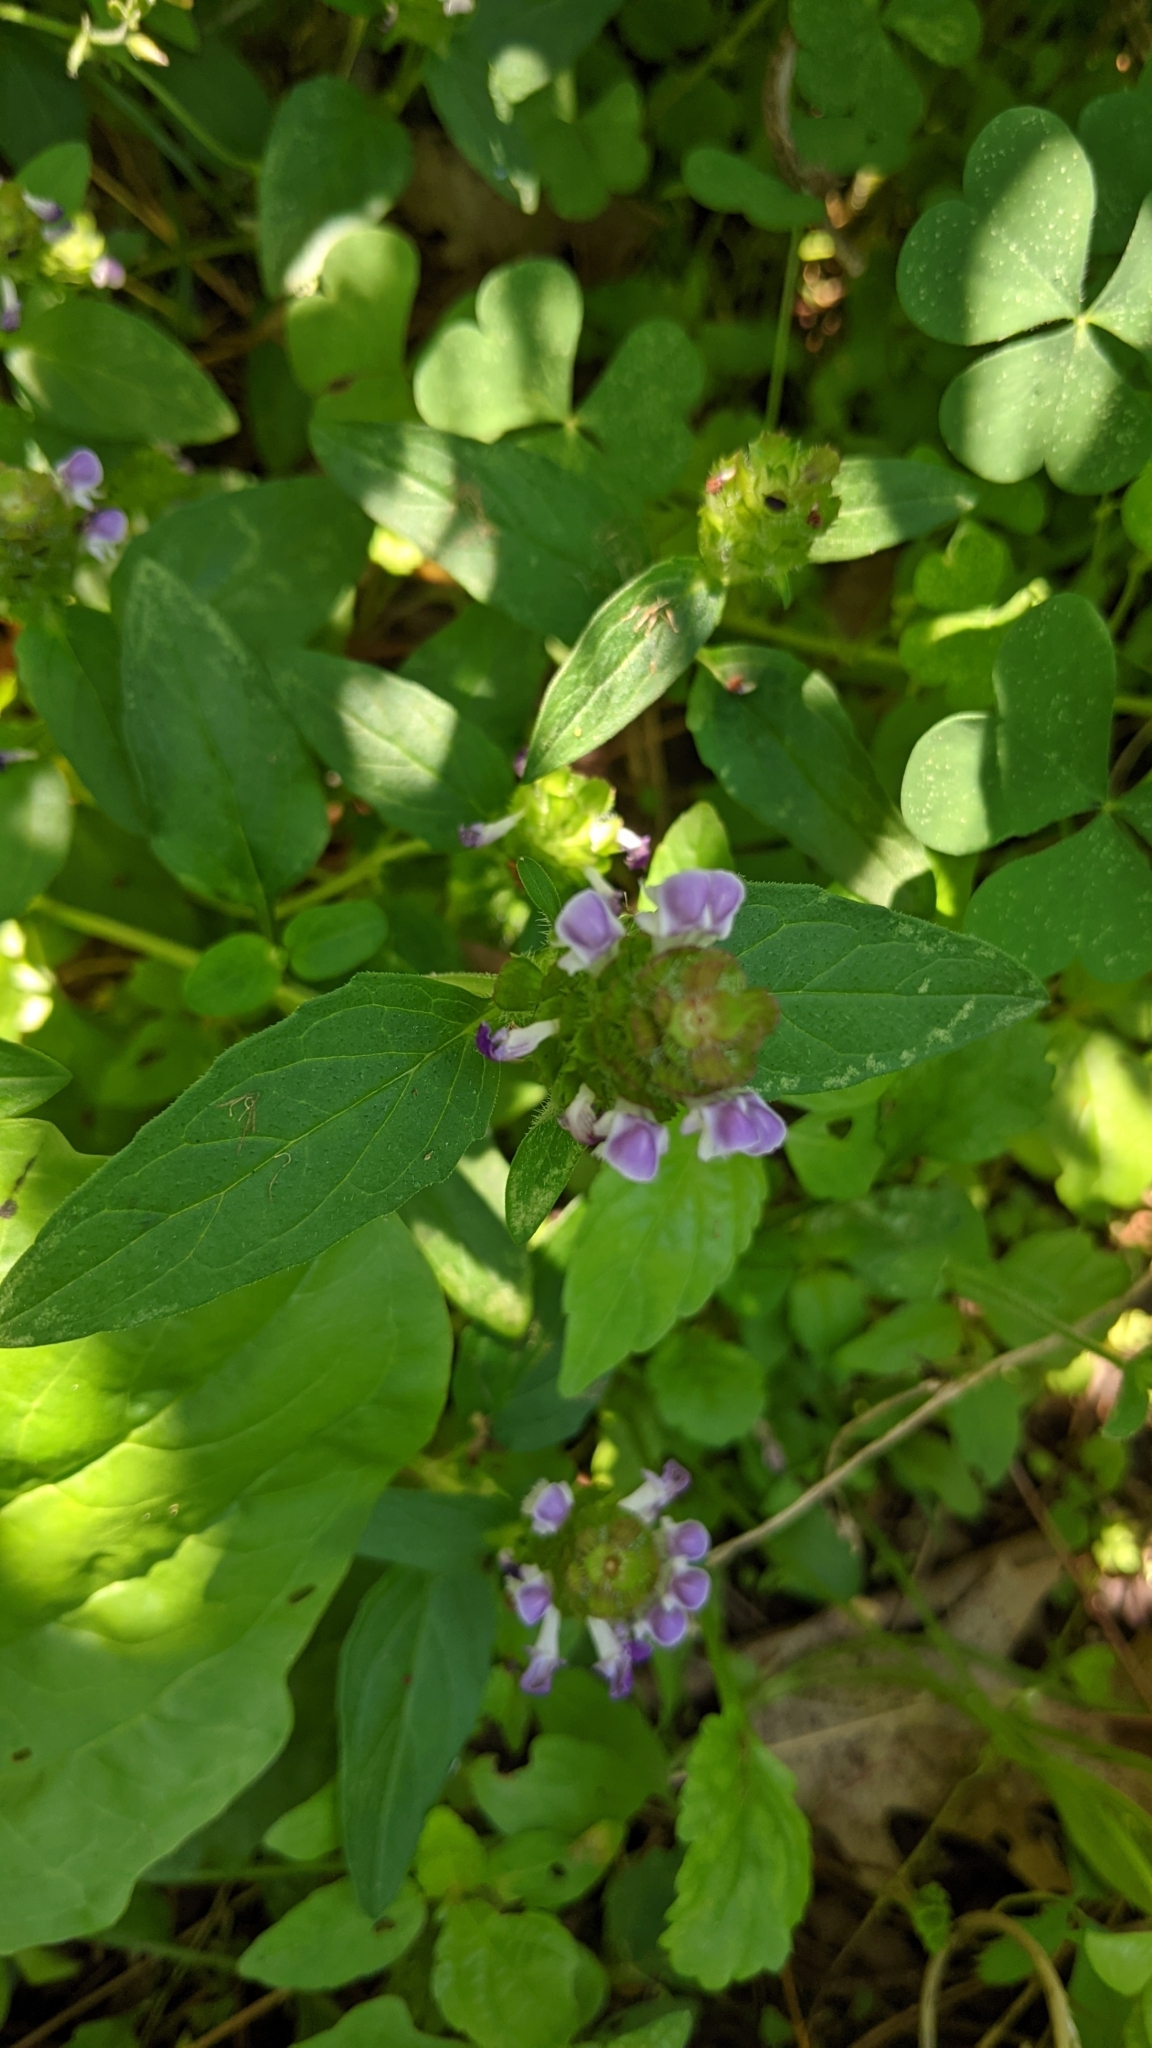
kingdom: Plantae
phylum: Tracheophyta
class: Magnoliopsida
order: Lamiales
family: Lamiaceae
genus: Prunella
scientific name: Prunella vulgaris
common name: Heal-all
